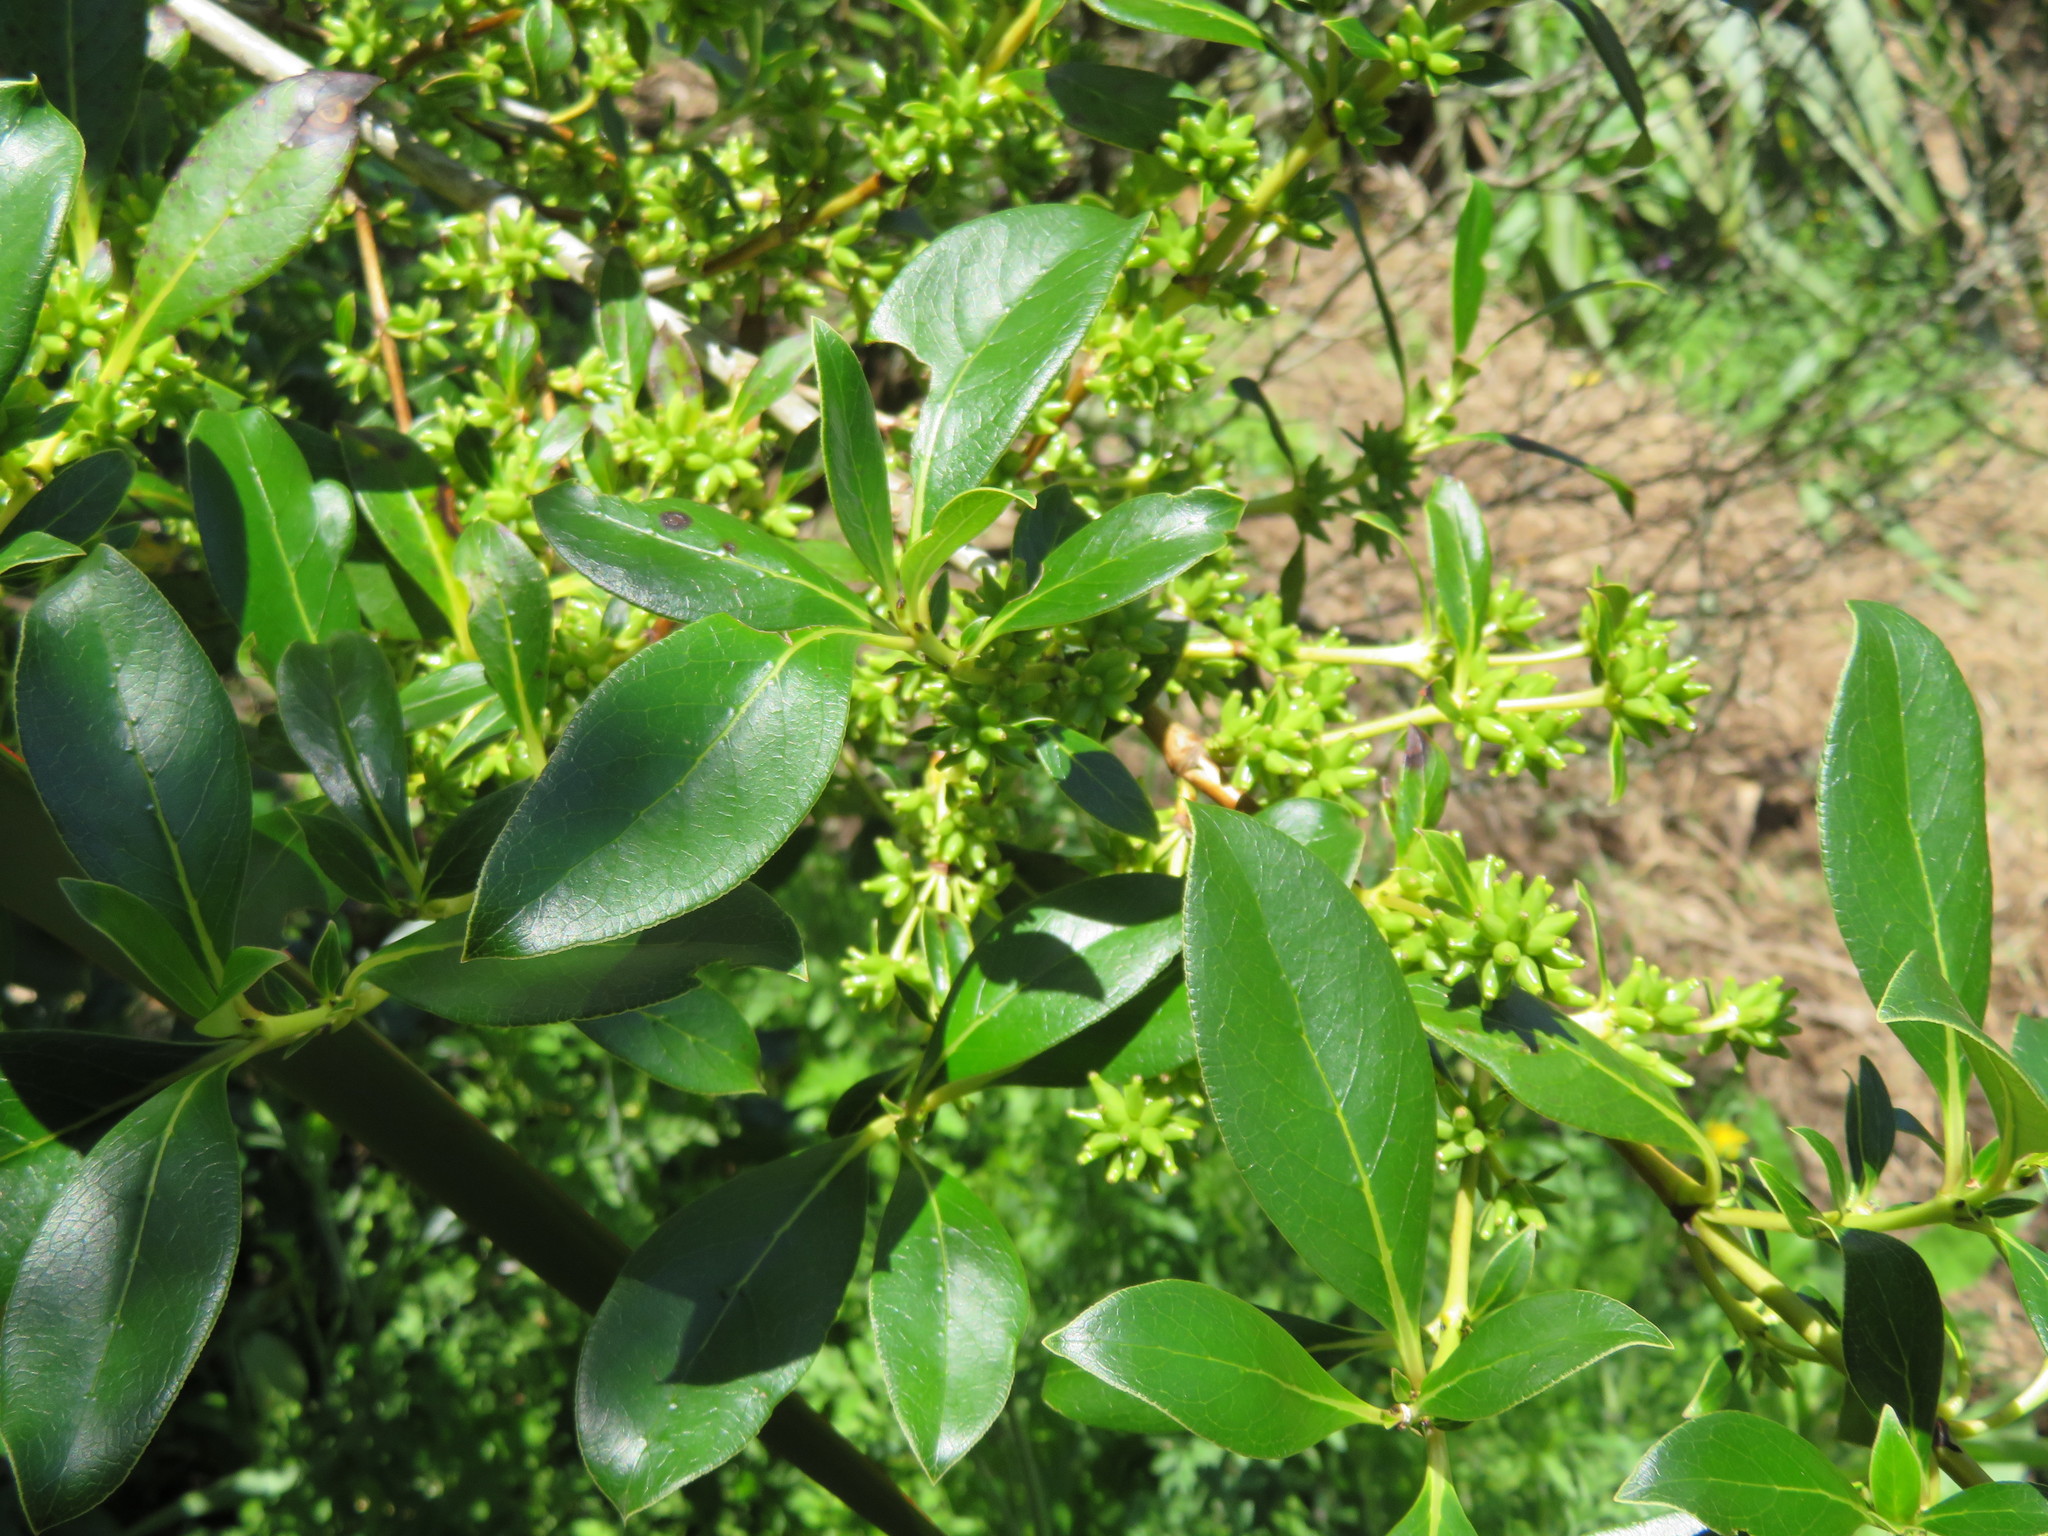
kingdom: Plantae
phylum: Tracheophyta
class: Magnoliopsida
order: Gentianales
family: Rubiaceae
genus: Coprosma
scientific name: Coprosma robusta
